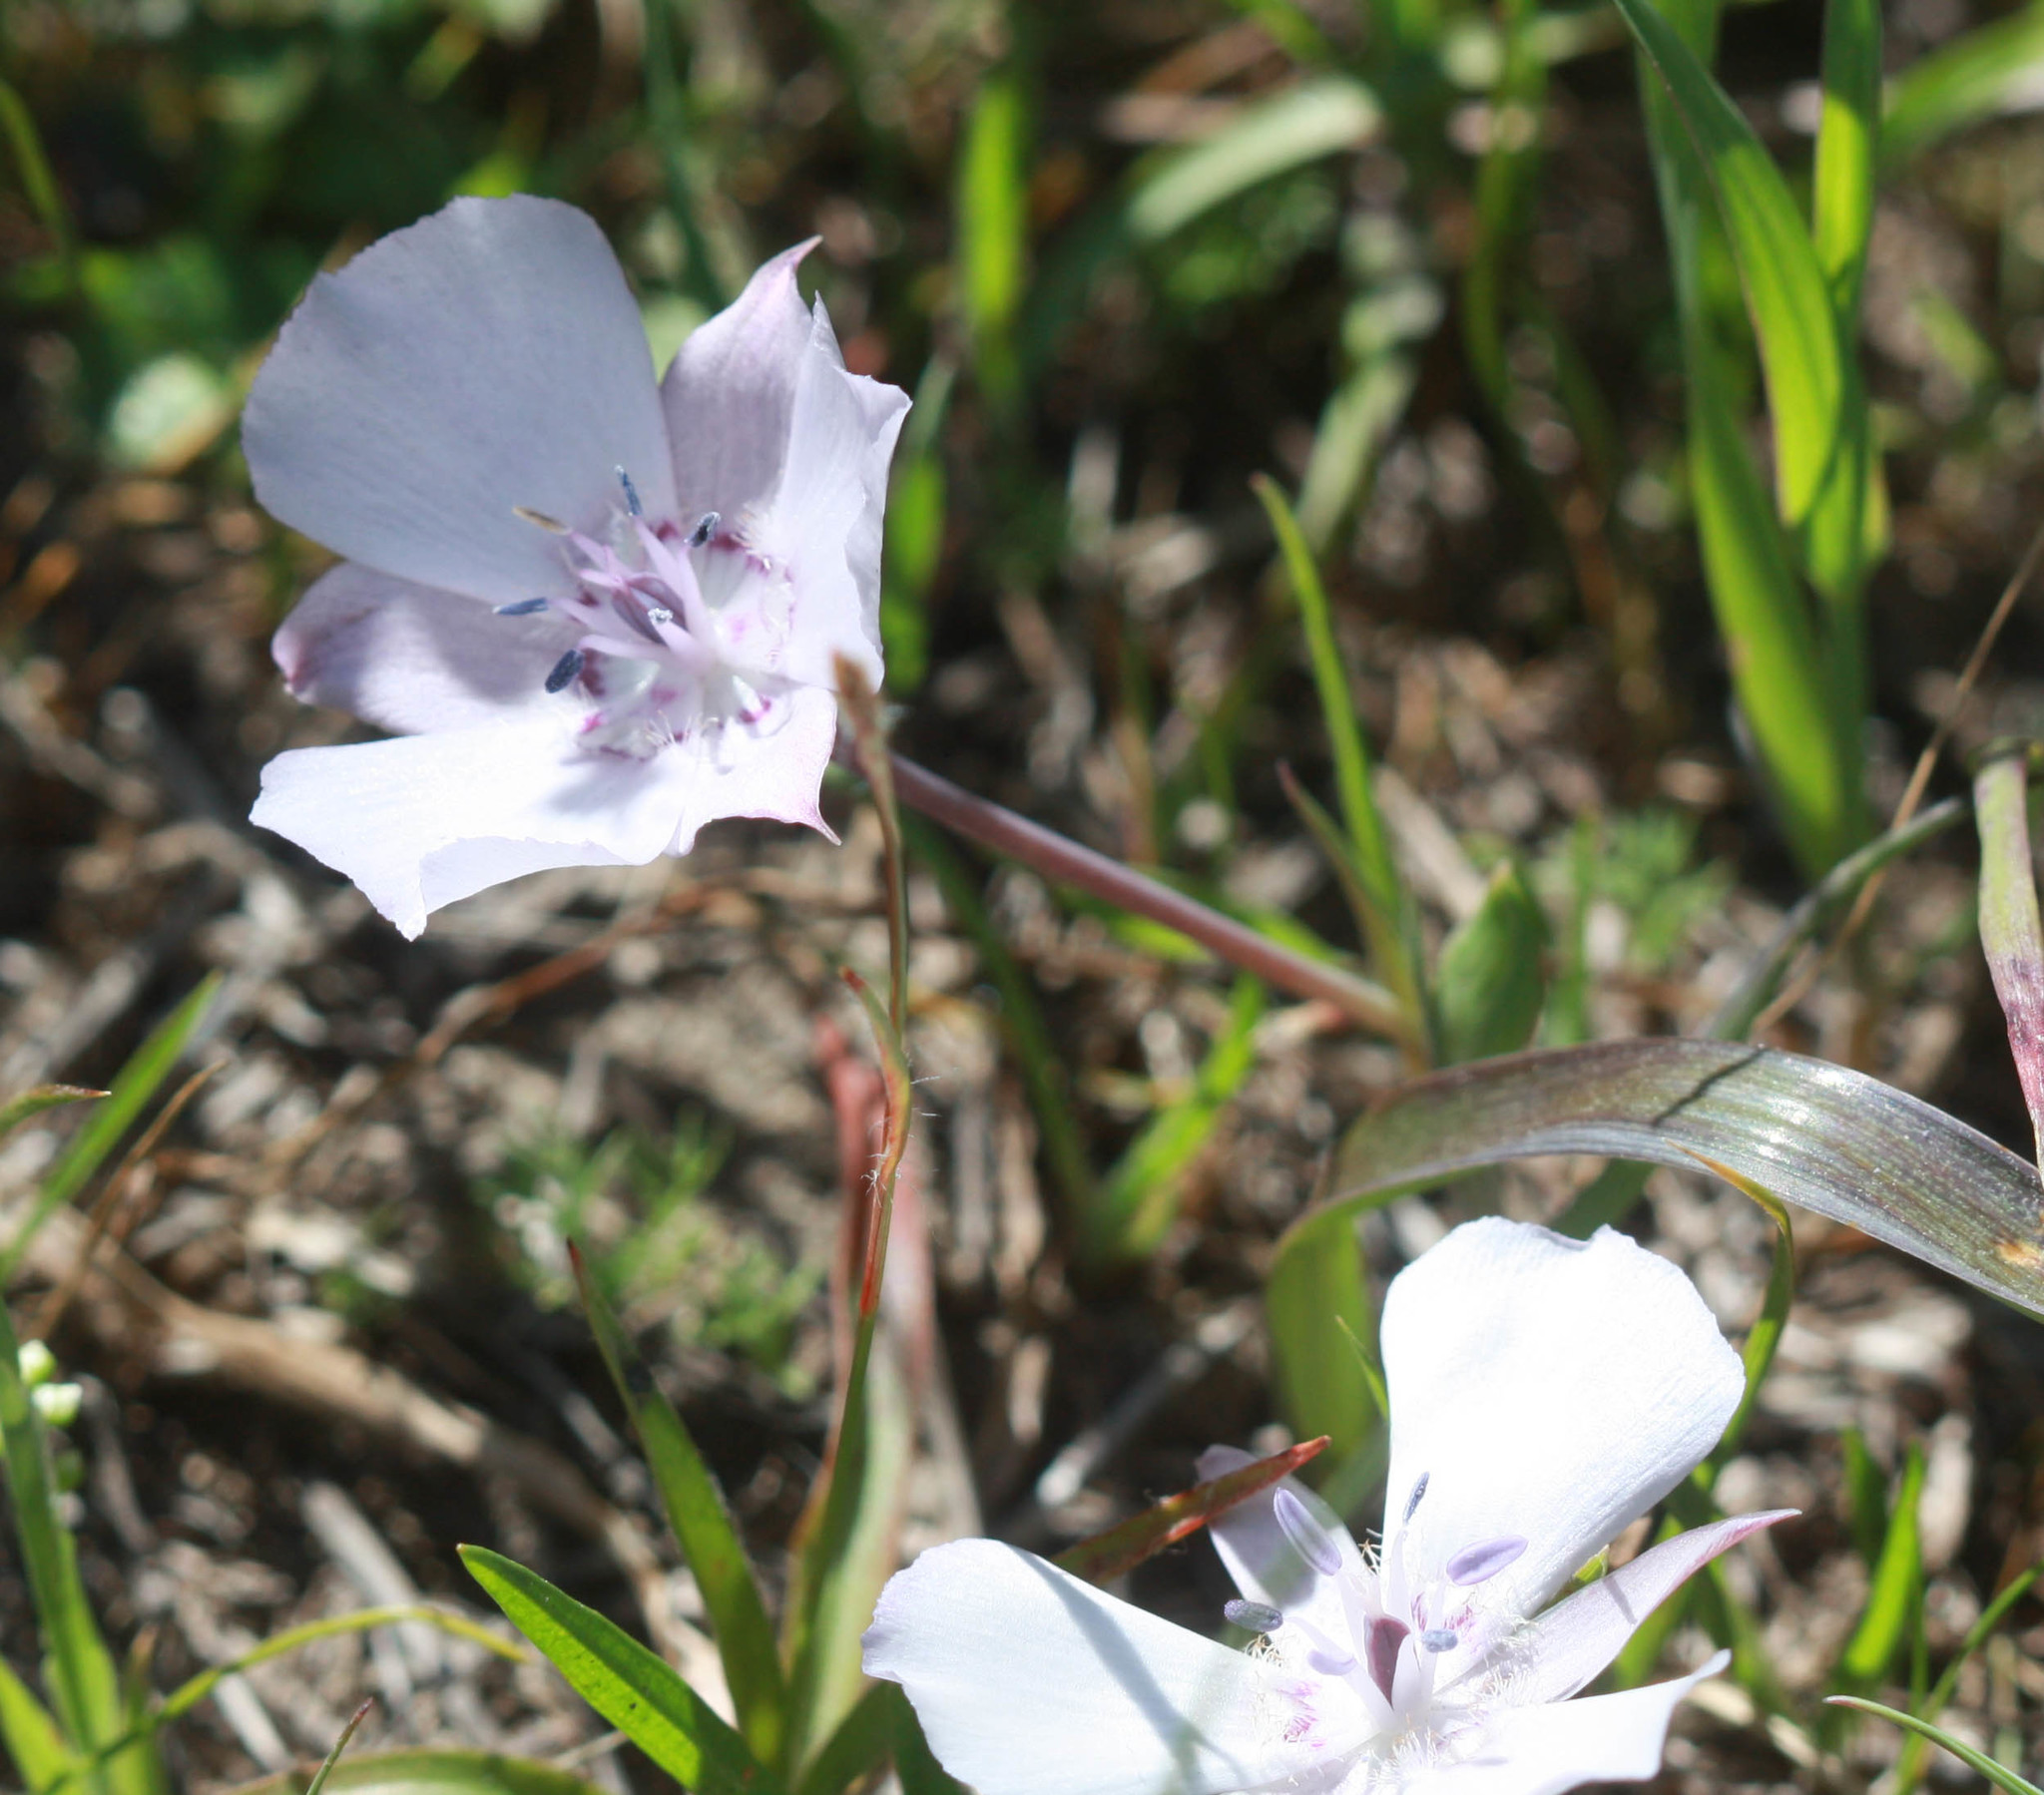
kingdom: Plantae
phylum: Tracheophyta
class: Liliopsida
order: Liliales
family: Liliaceae
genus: Calochortus
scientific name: Calochortus umbellatus
